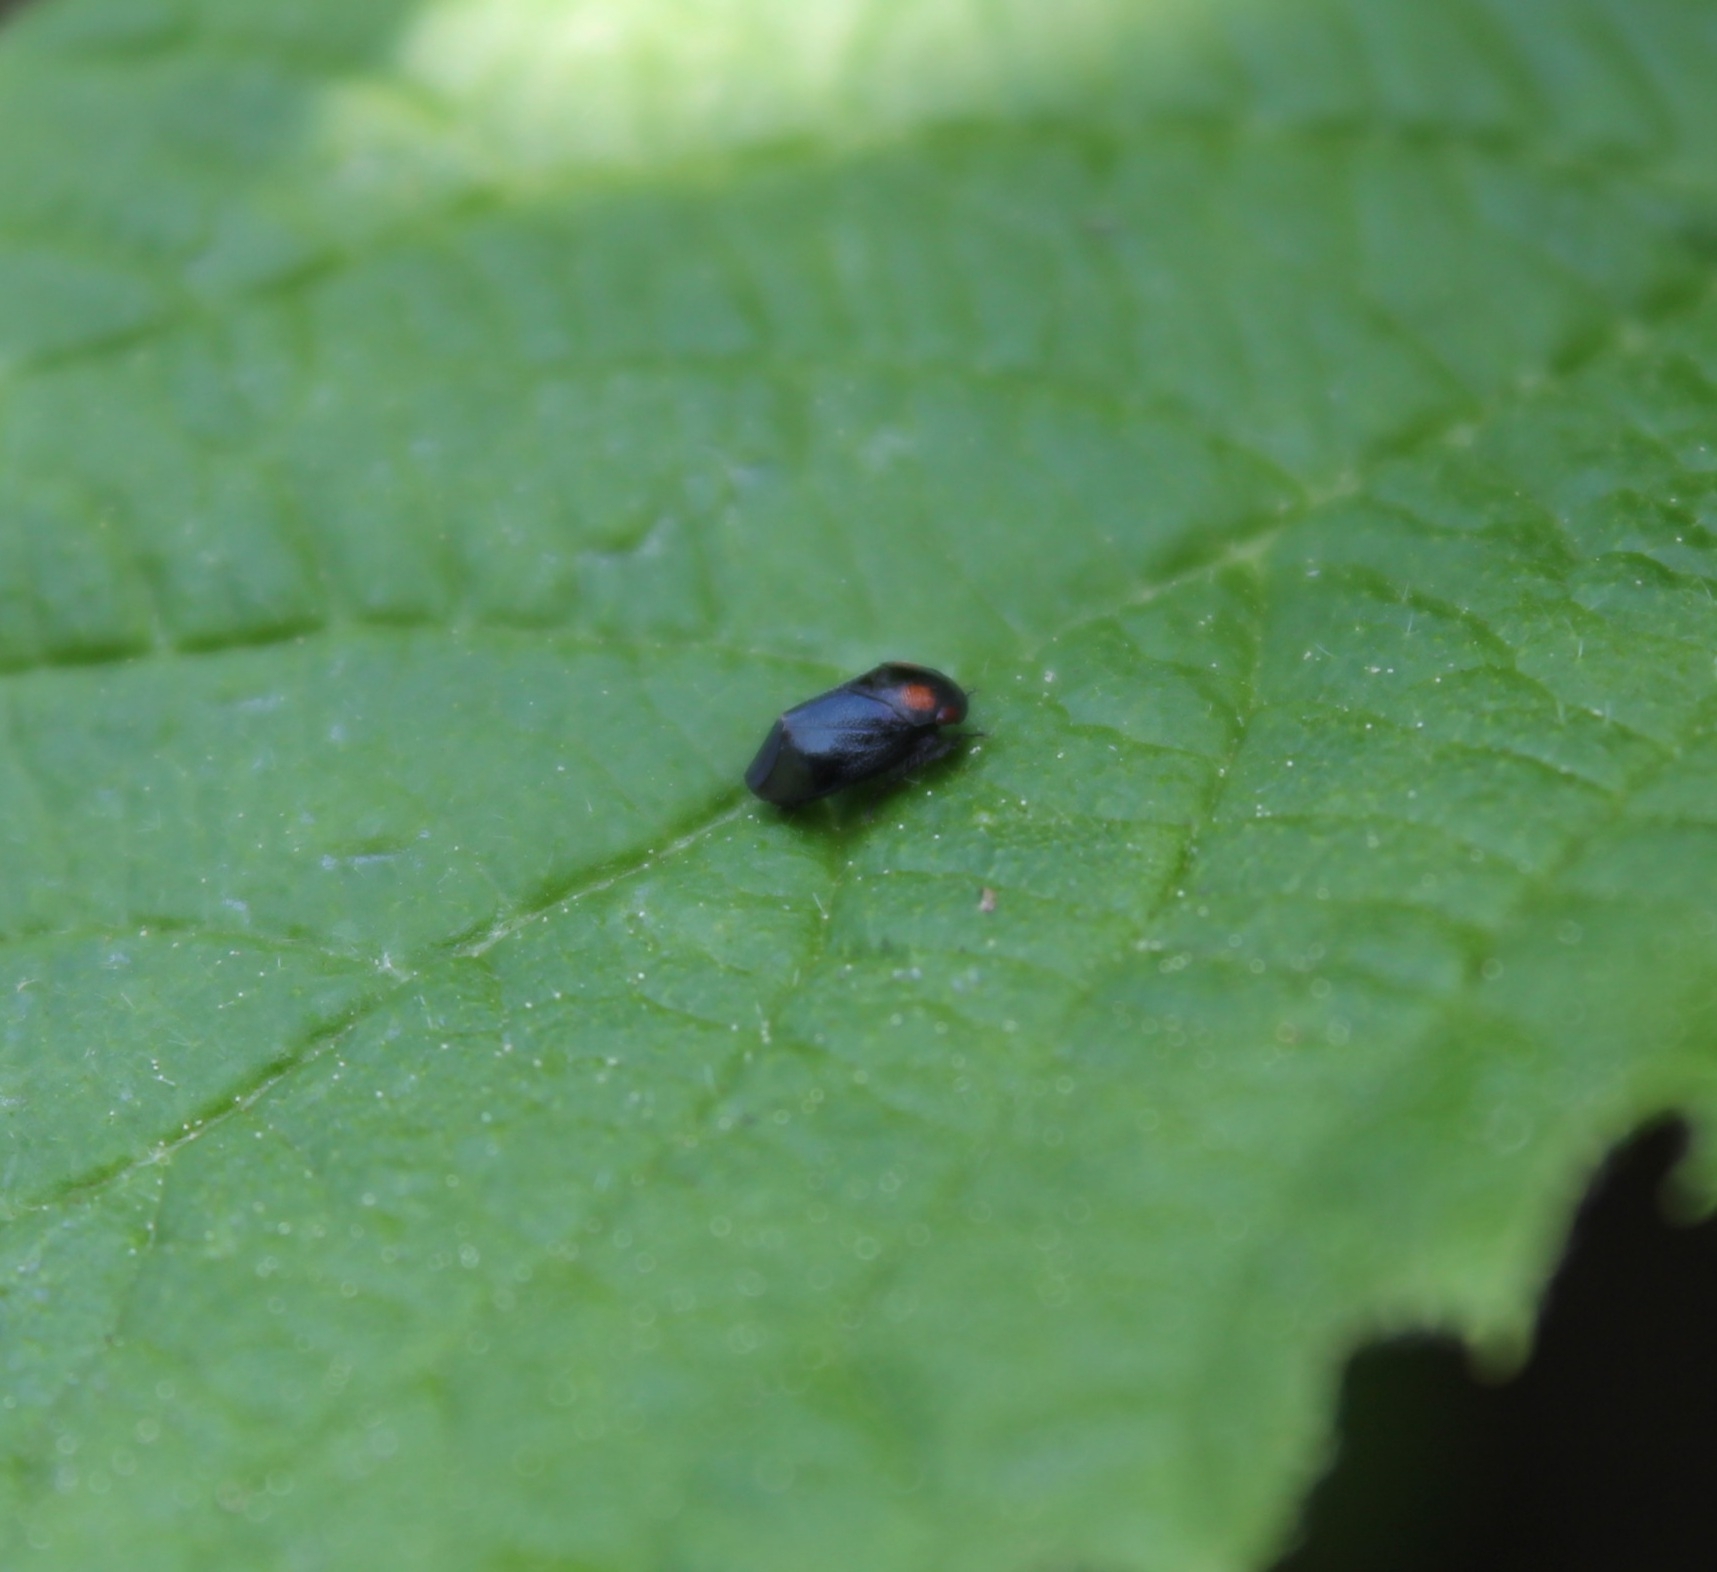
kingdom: Animalia
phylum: Arthropoda
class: Insecta
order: Hemiptera
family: Cicadellidae
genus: Penthimia
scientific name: Penthimia nigra
